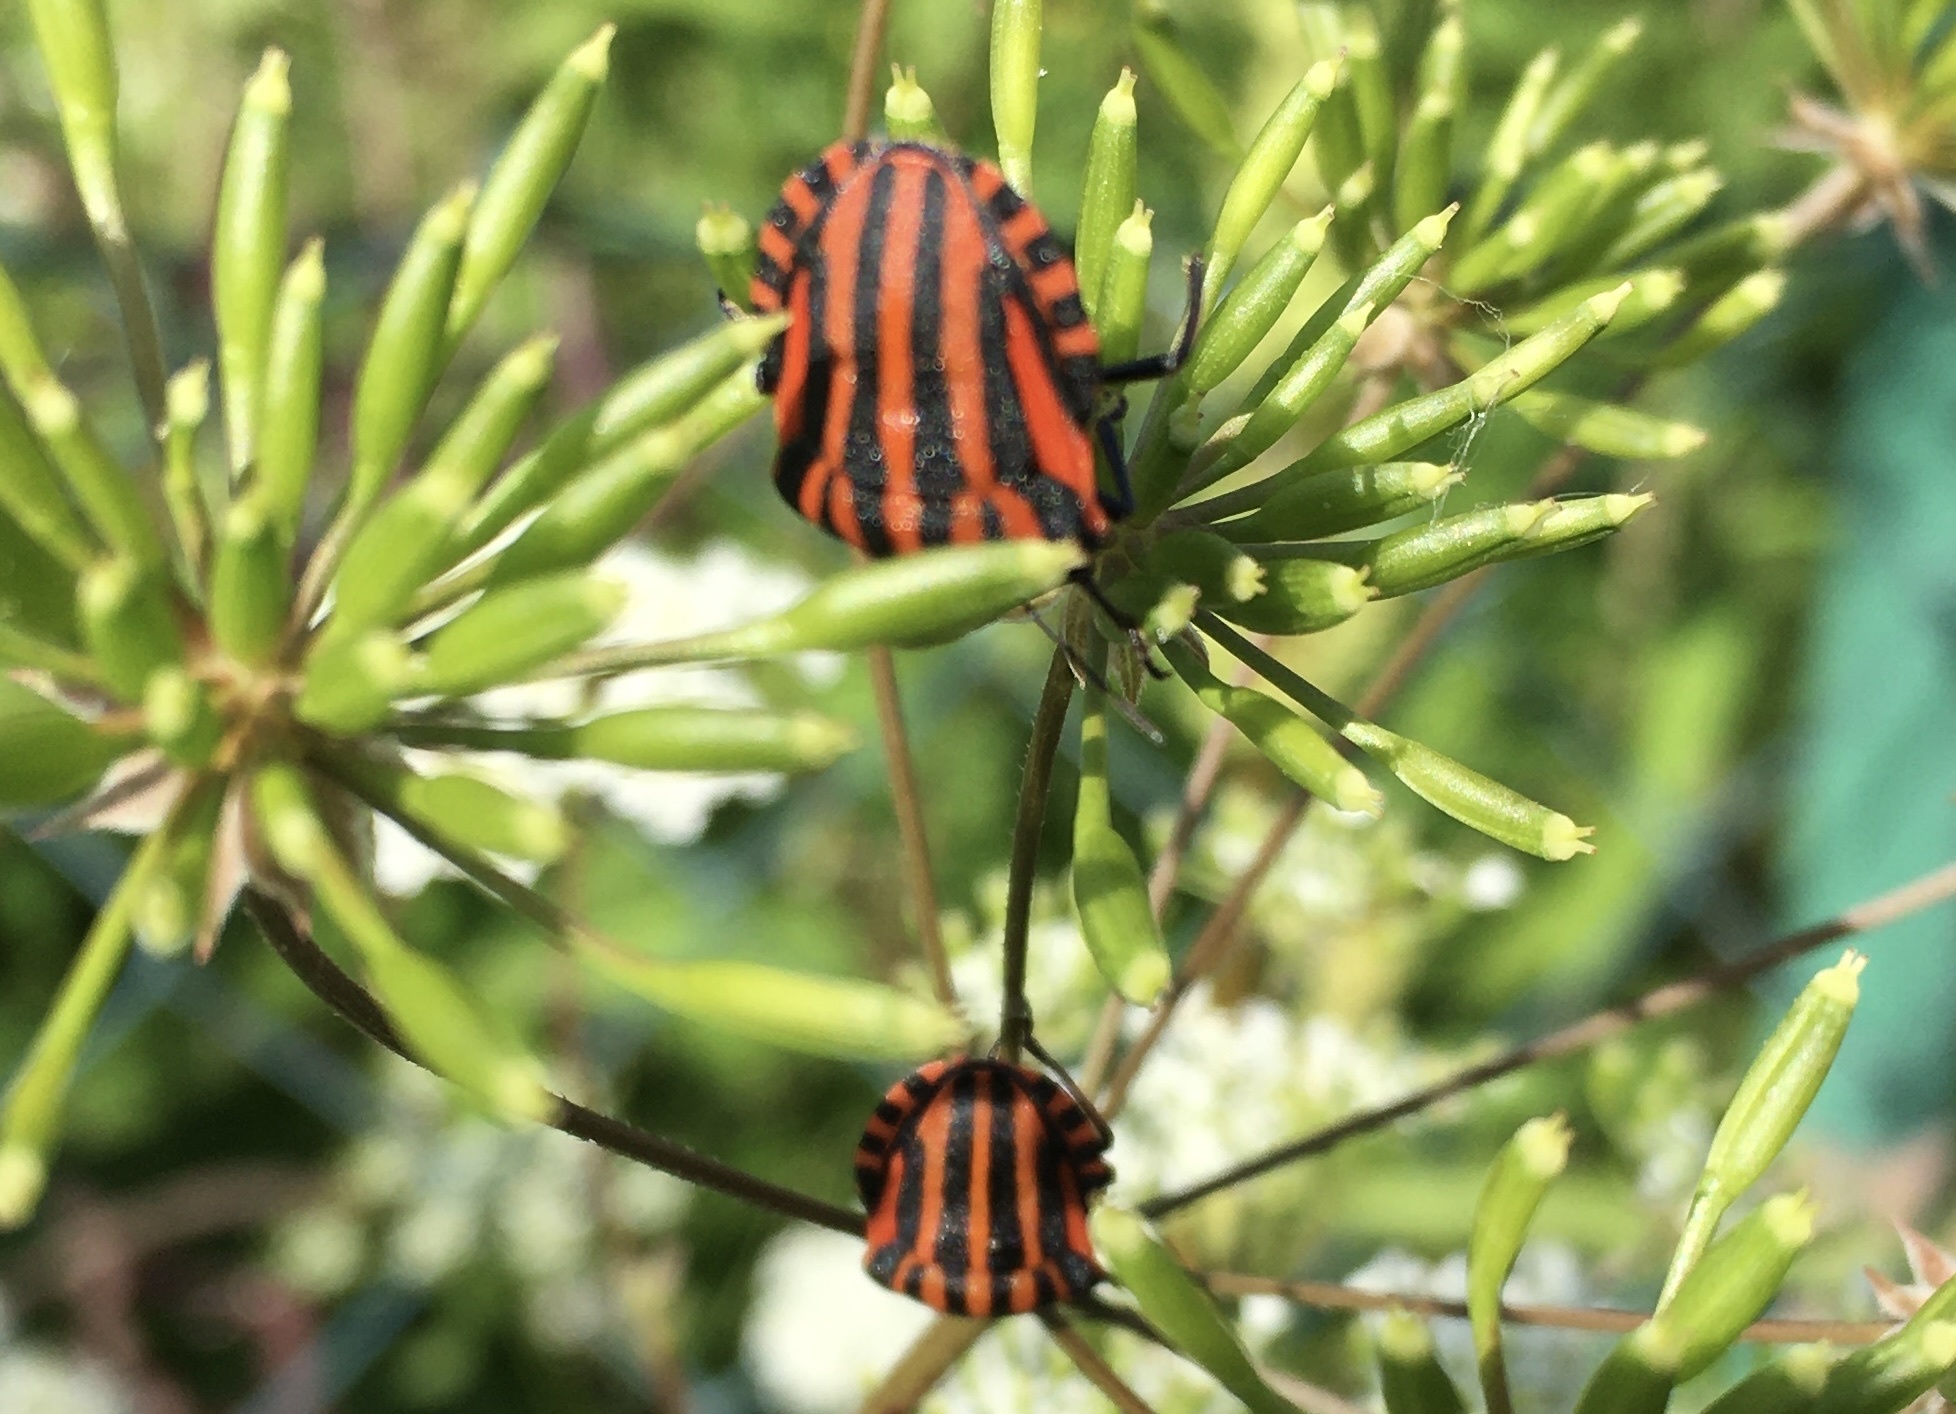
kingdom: Animalia
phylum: Arthropoda
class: Insecta
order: Hemiptera
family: Pentatomidae
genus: Graphosoma
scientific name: Graphosoma italicum
